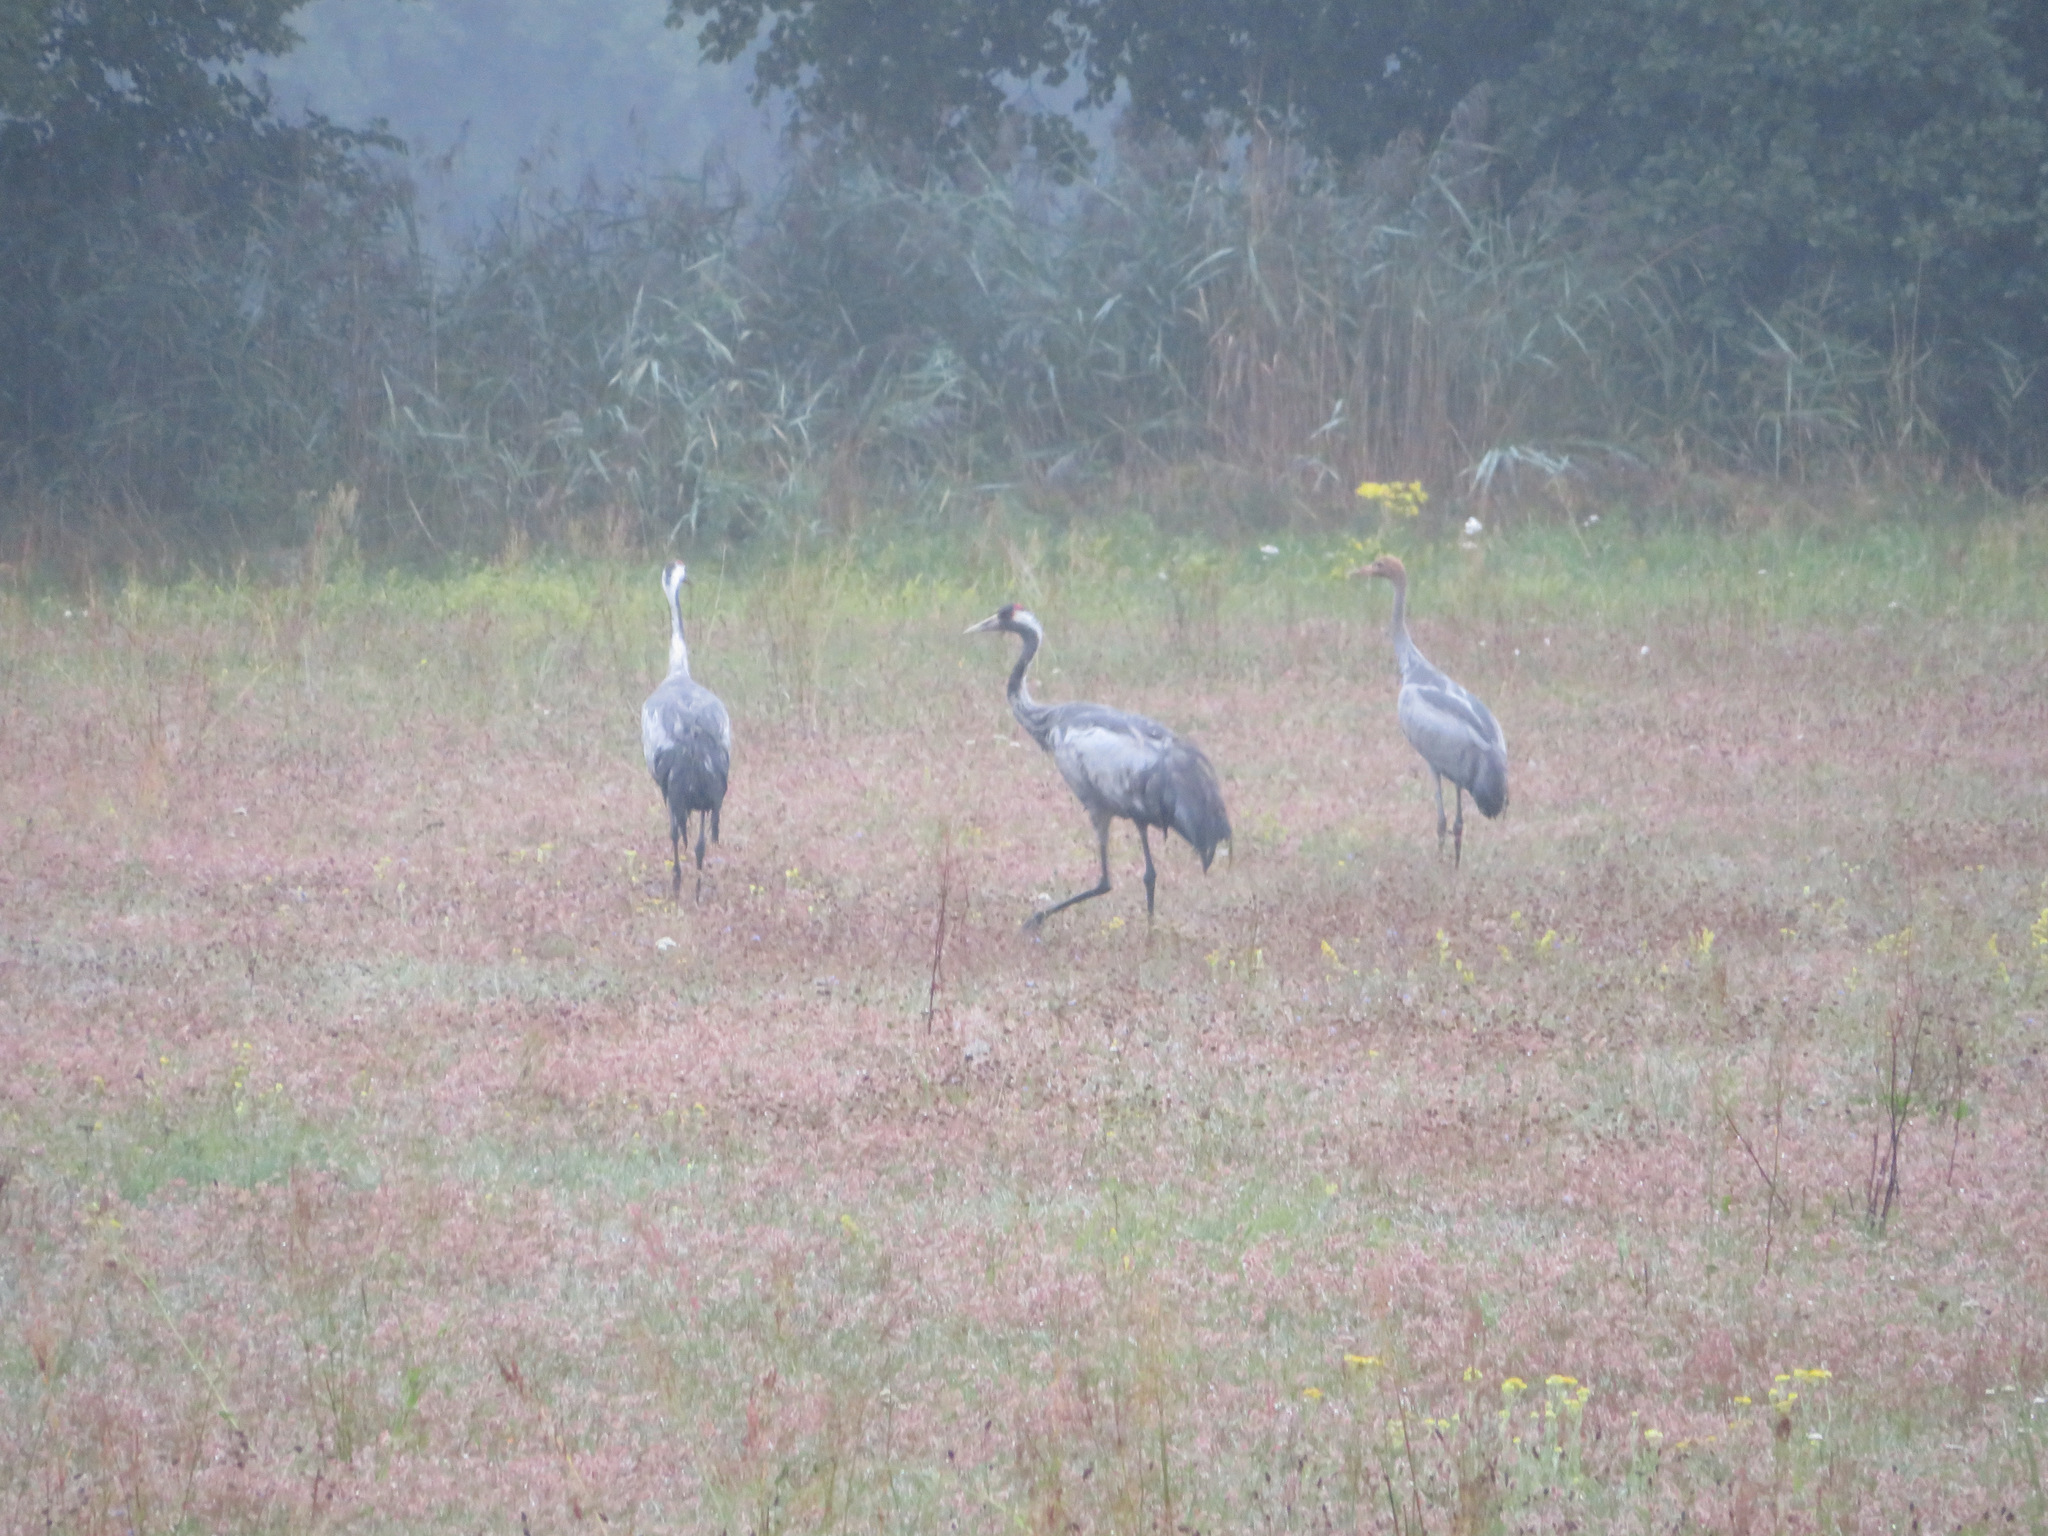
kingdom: Animalia
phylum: Chordata
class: Aves
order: Gruiformes
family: Gruidae
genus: Grus
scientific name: Grus grus
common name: Common crane
